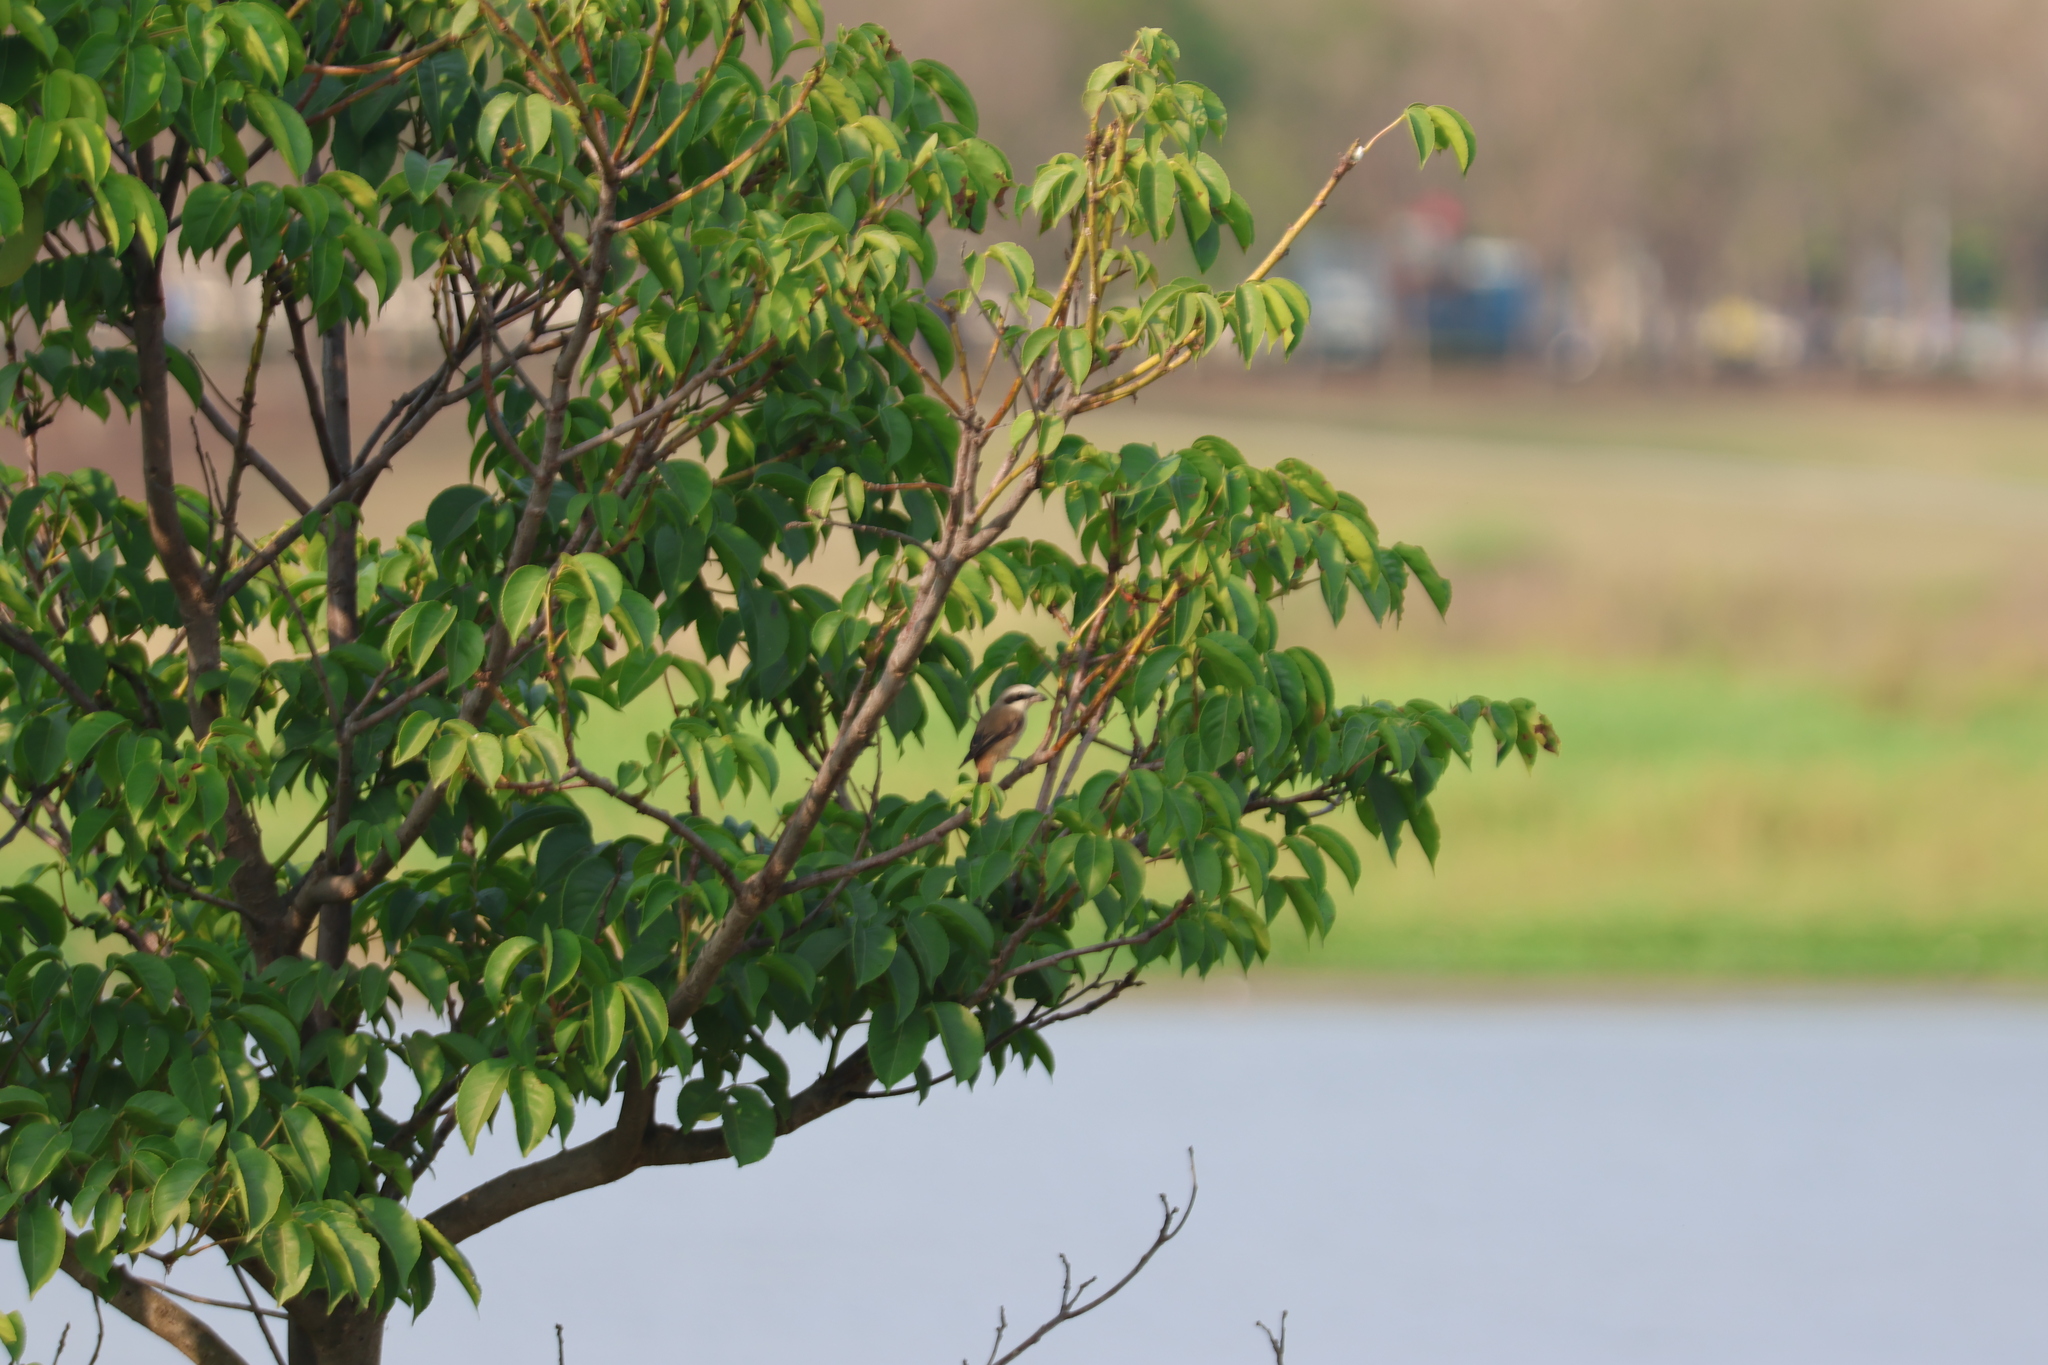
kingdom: Animalia
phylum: Chordata
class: Aves
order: Passeriformes
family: Laniidae
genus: Lanius
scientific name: Lanius cristatus
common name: Brown shrike
